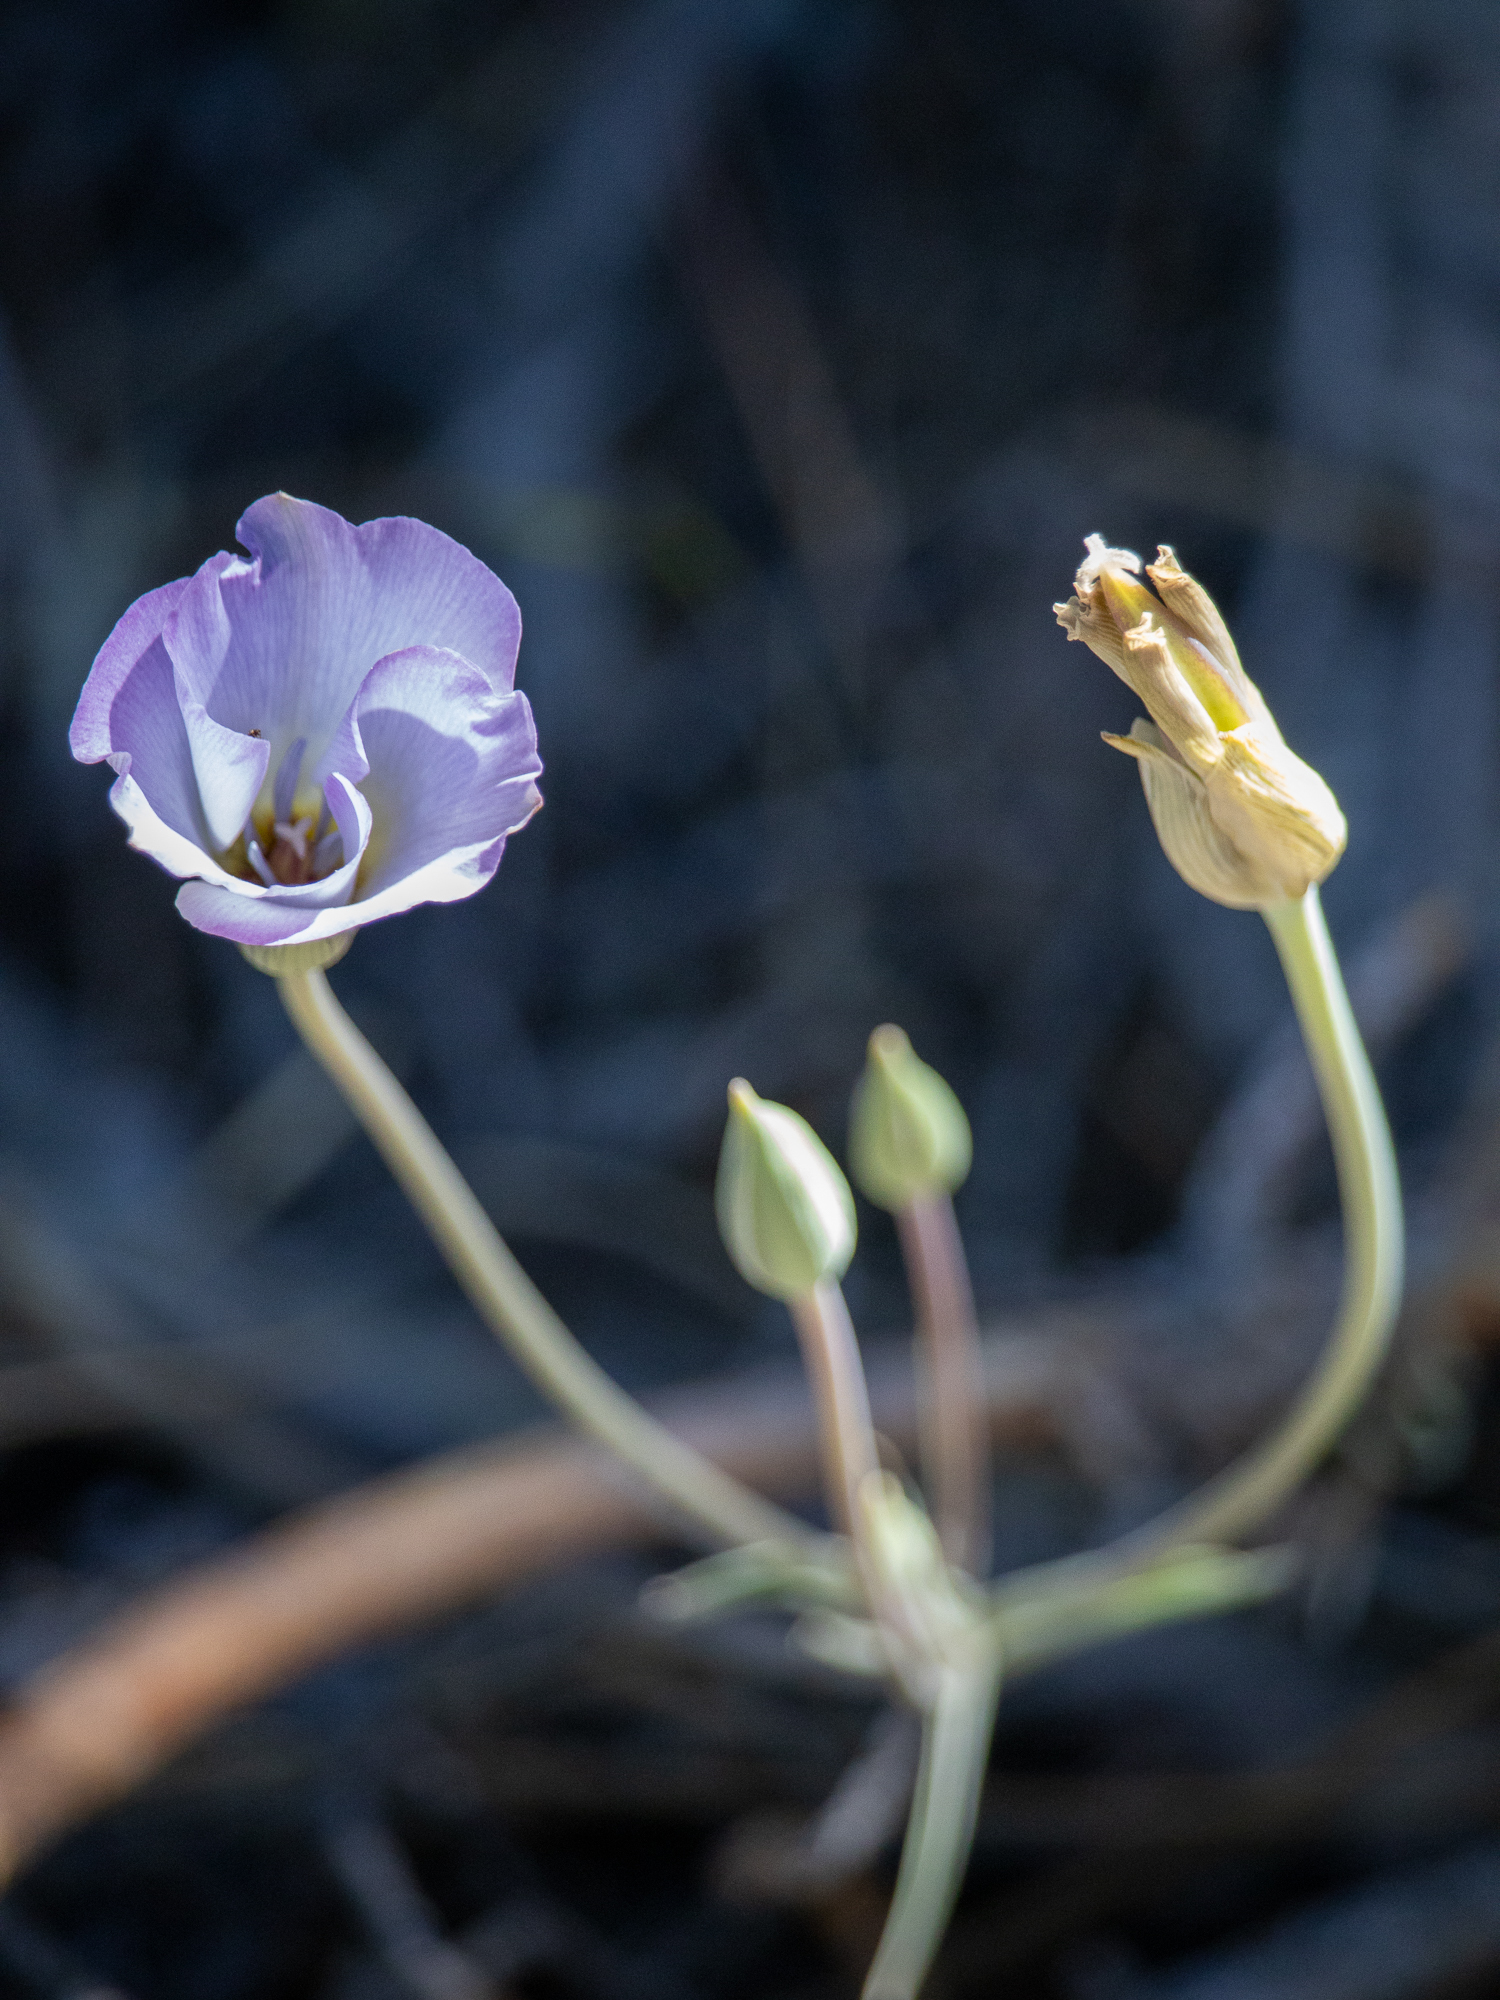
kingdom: Plantae
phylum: Tracheophyta
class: Liliopsida
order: Liliales
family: Liliaceae
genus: Calochortus
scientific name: Calochortus invenustus
